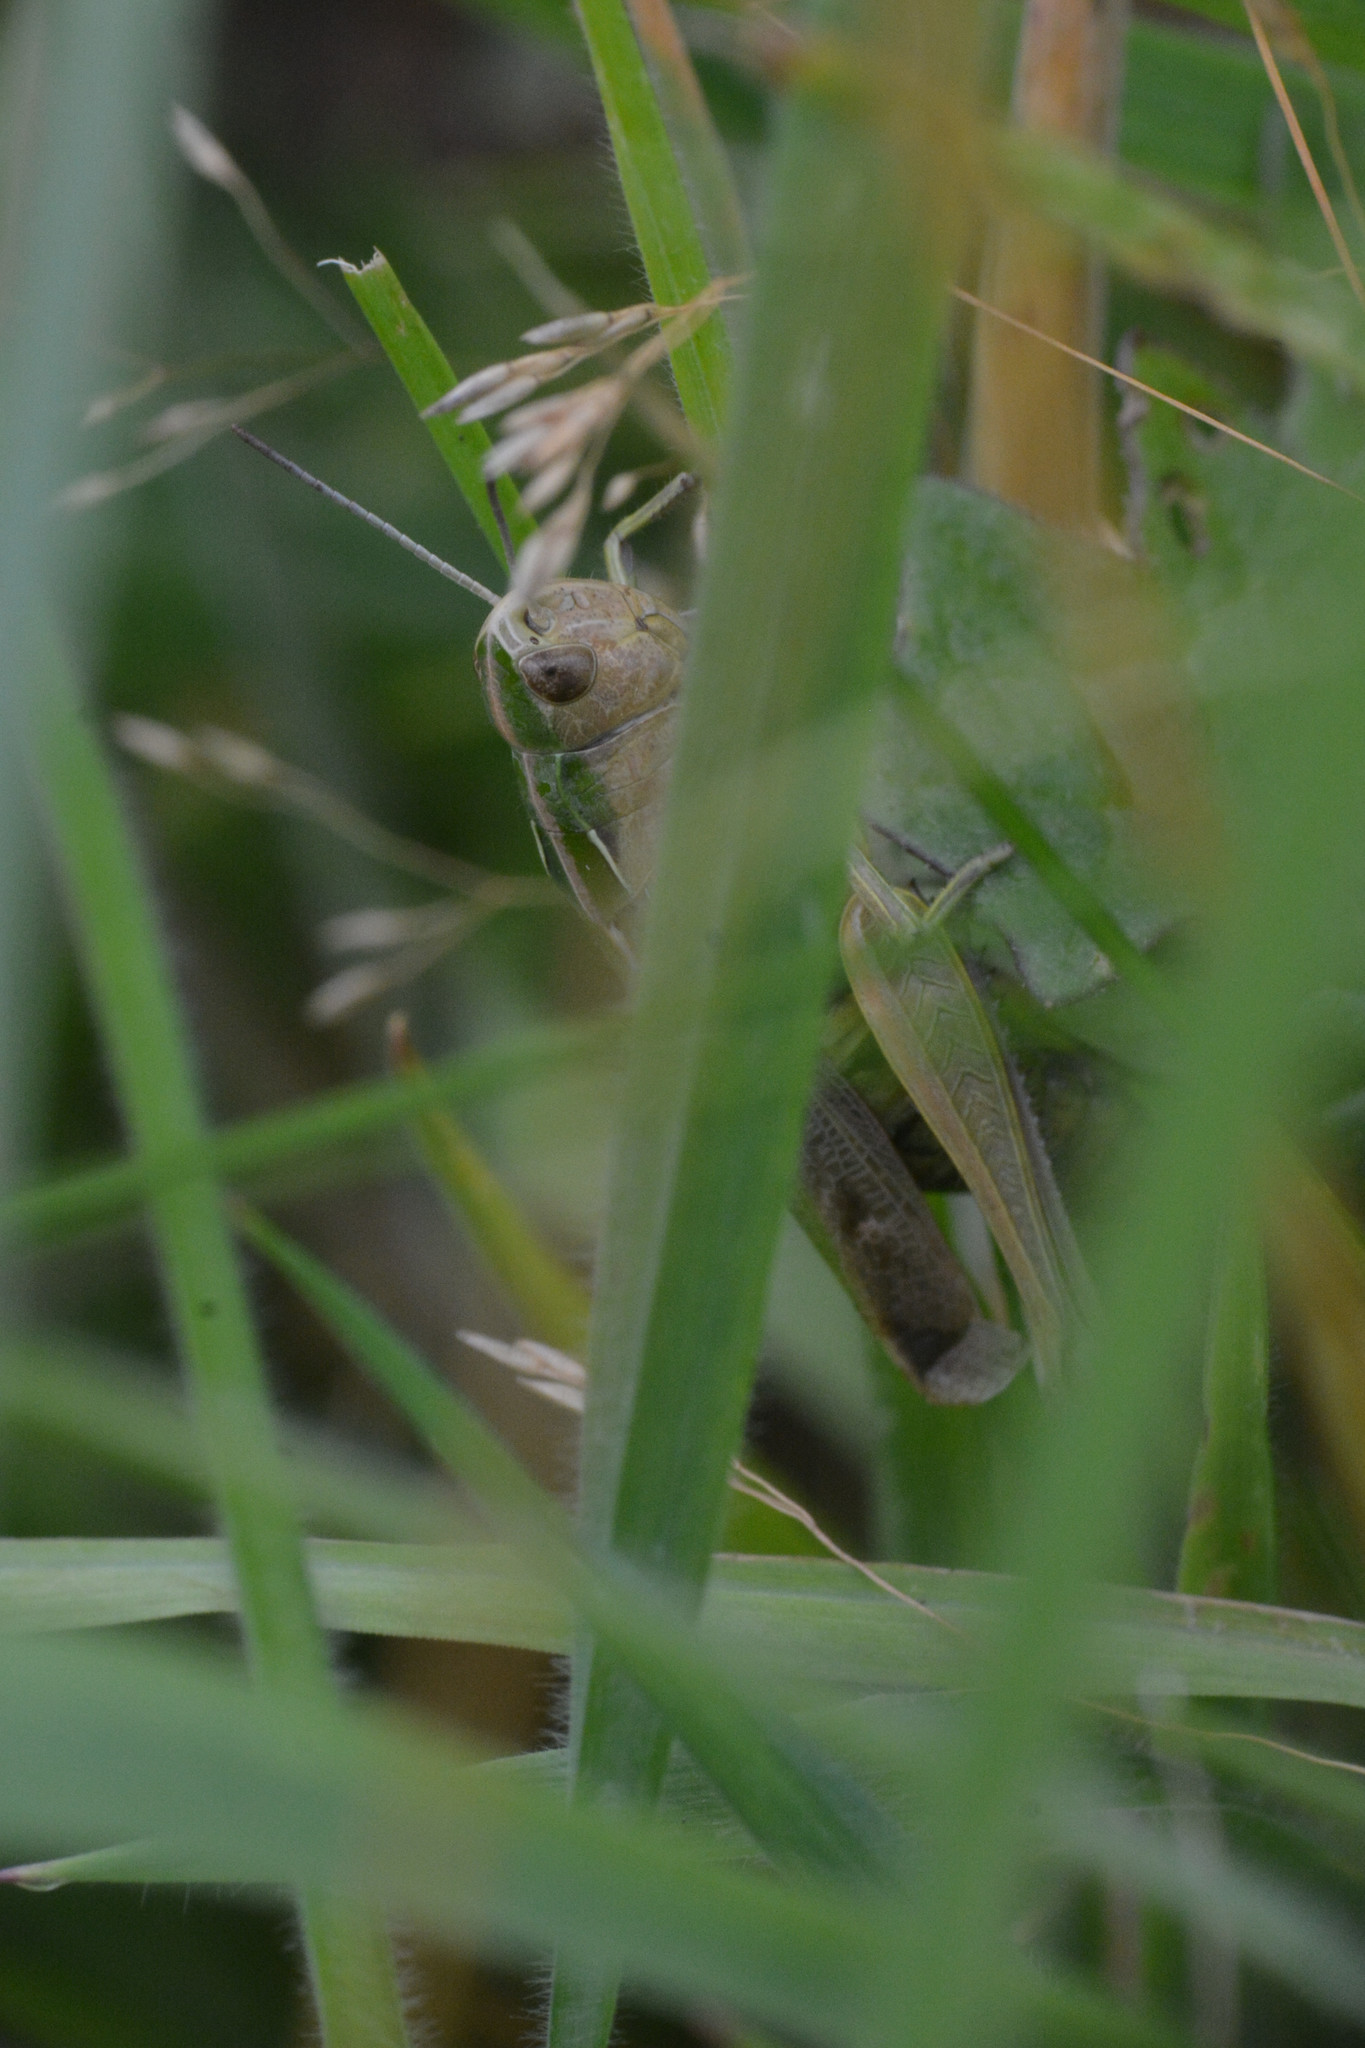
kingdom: Animalia
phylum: Arthropoda
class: Insecta
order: Orthoptera
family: Acrididae
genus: Omocestus
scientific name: Omocestus viridulus
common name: Common green grasshopper
